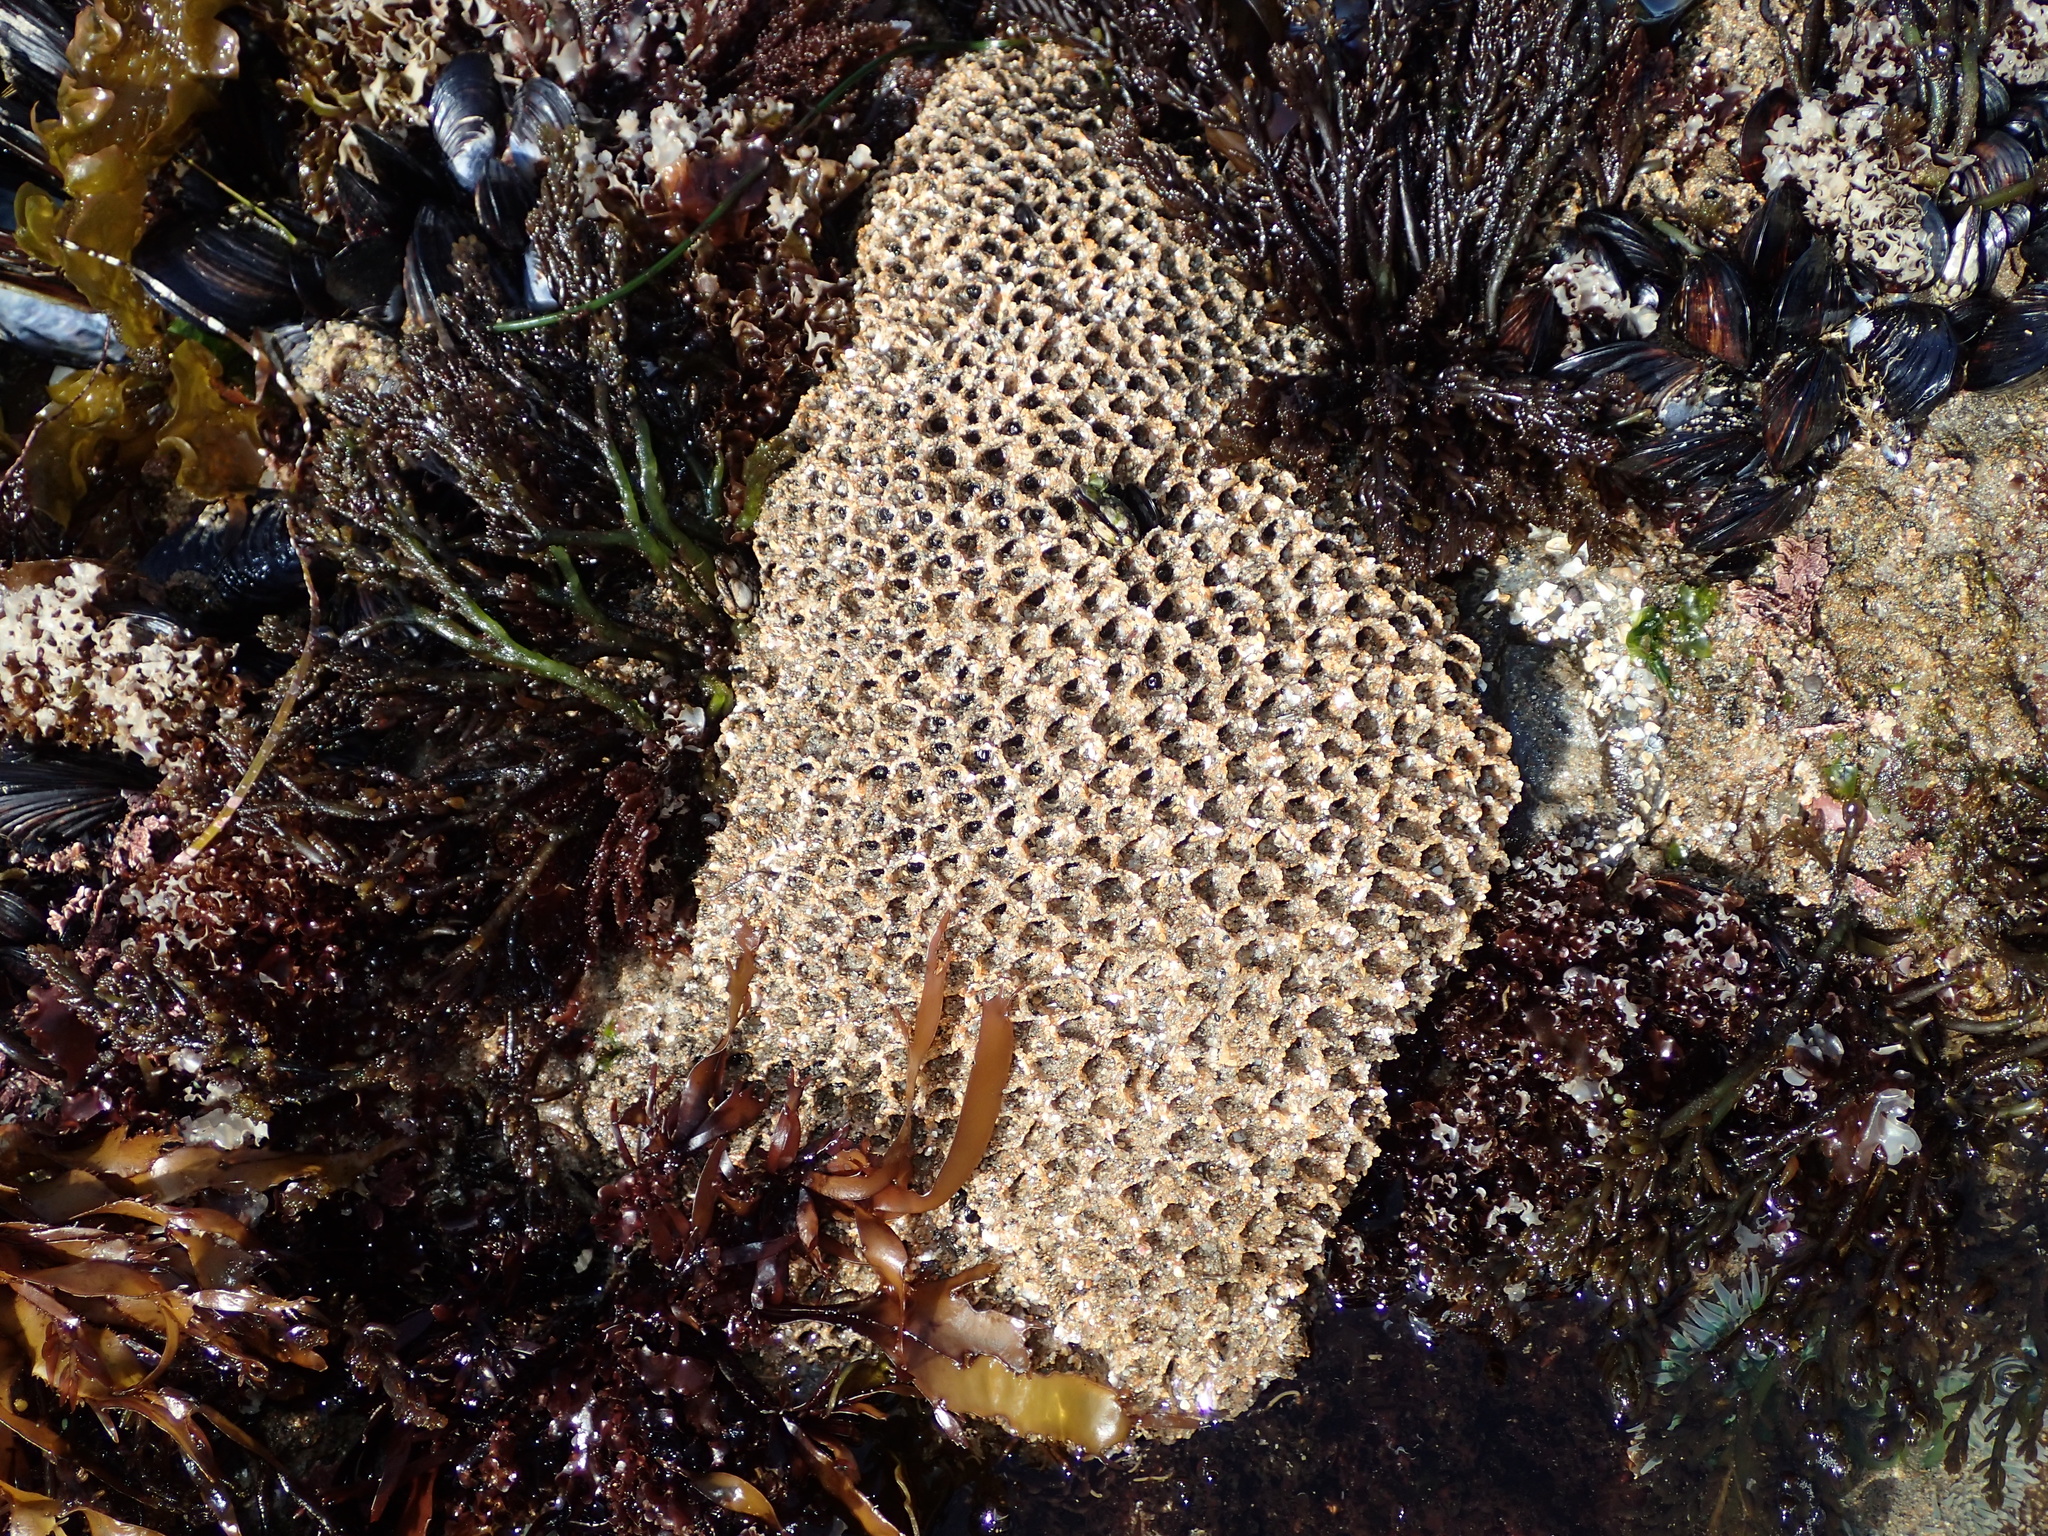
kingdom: Animalia
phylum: Annelida
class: Polychaeta
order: Sabellida
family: Sabellariidae
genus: Phragmatopoma
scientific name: Phragmatopoma californica
